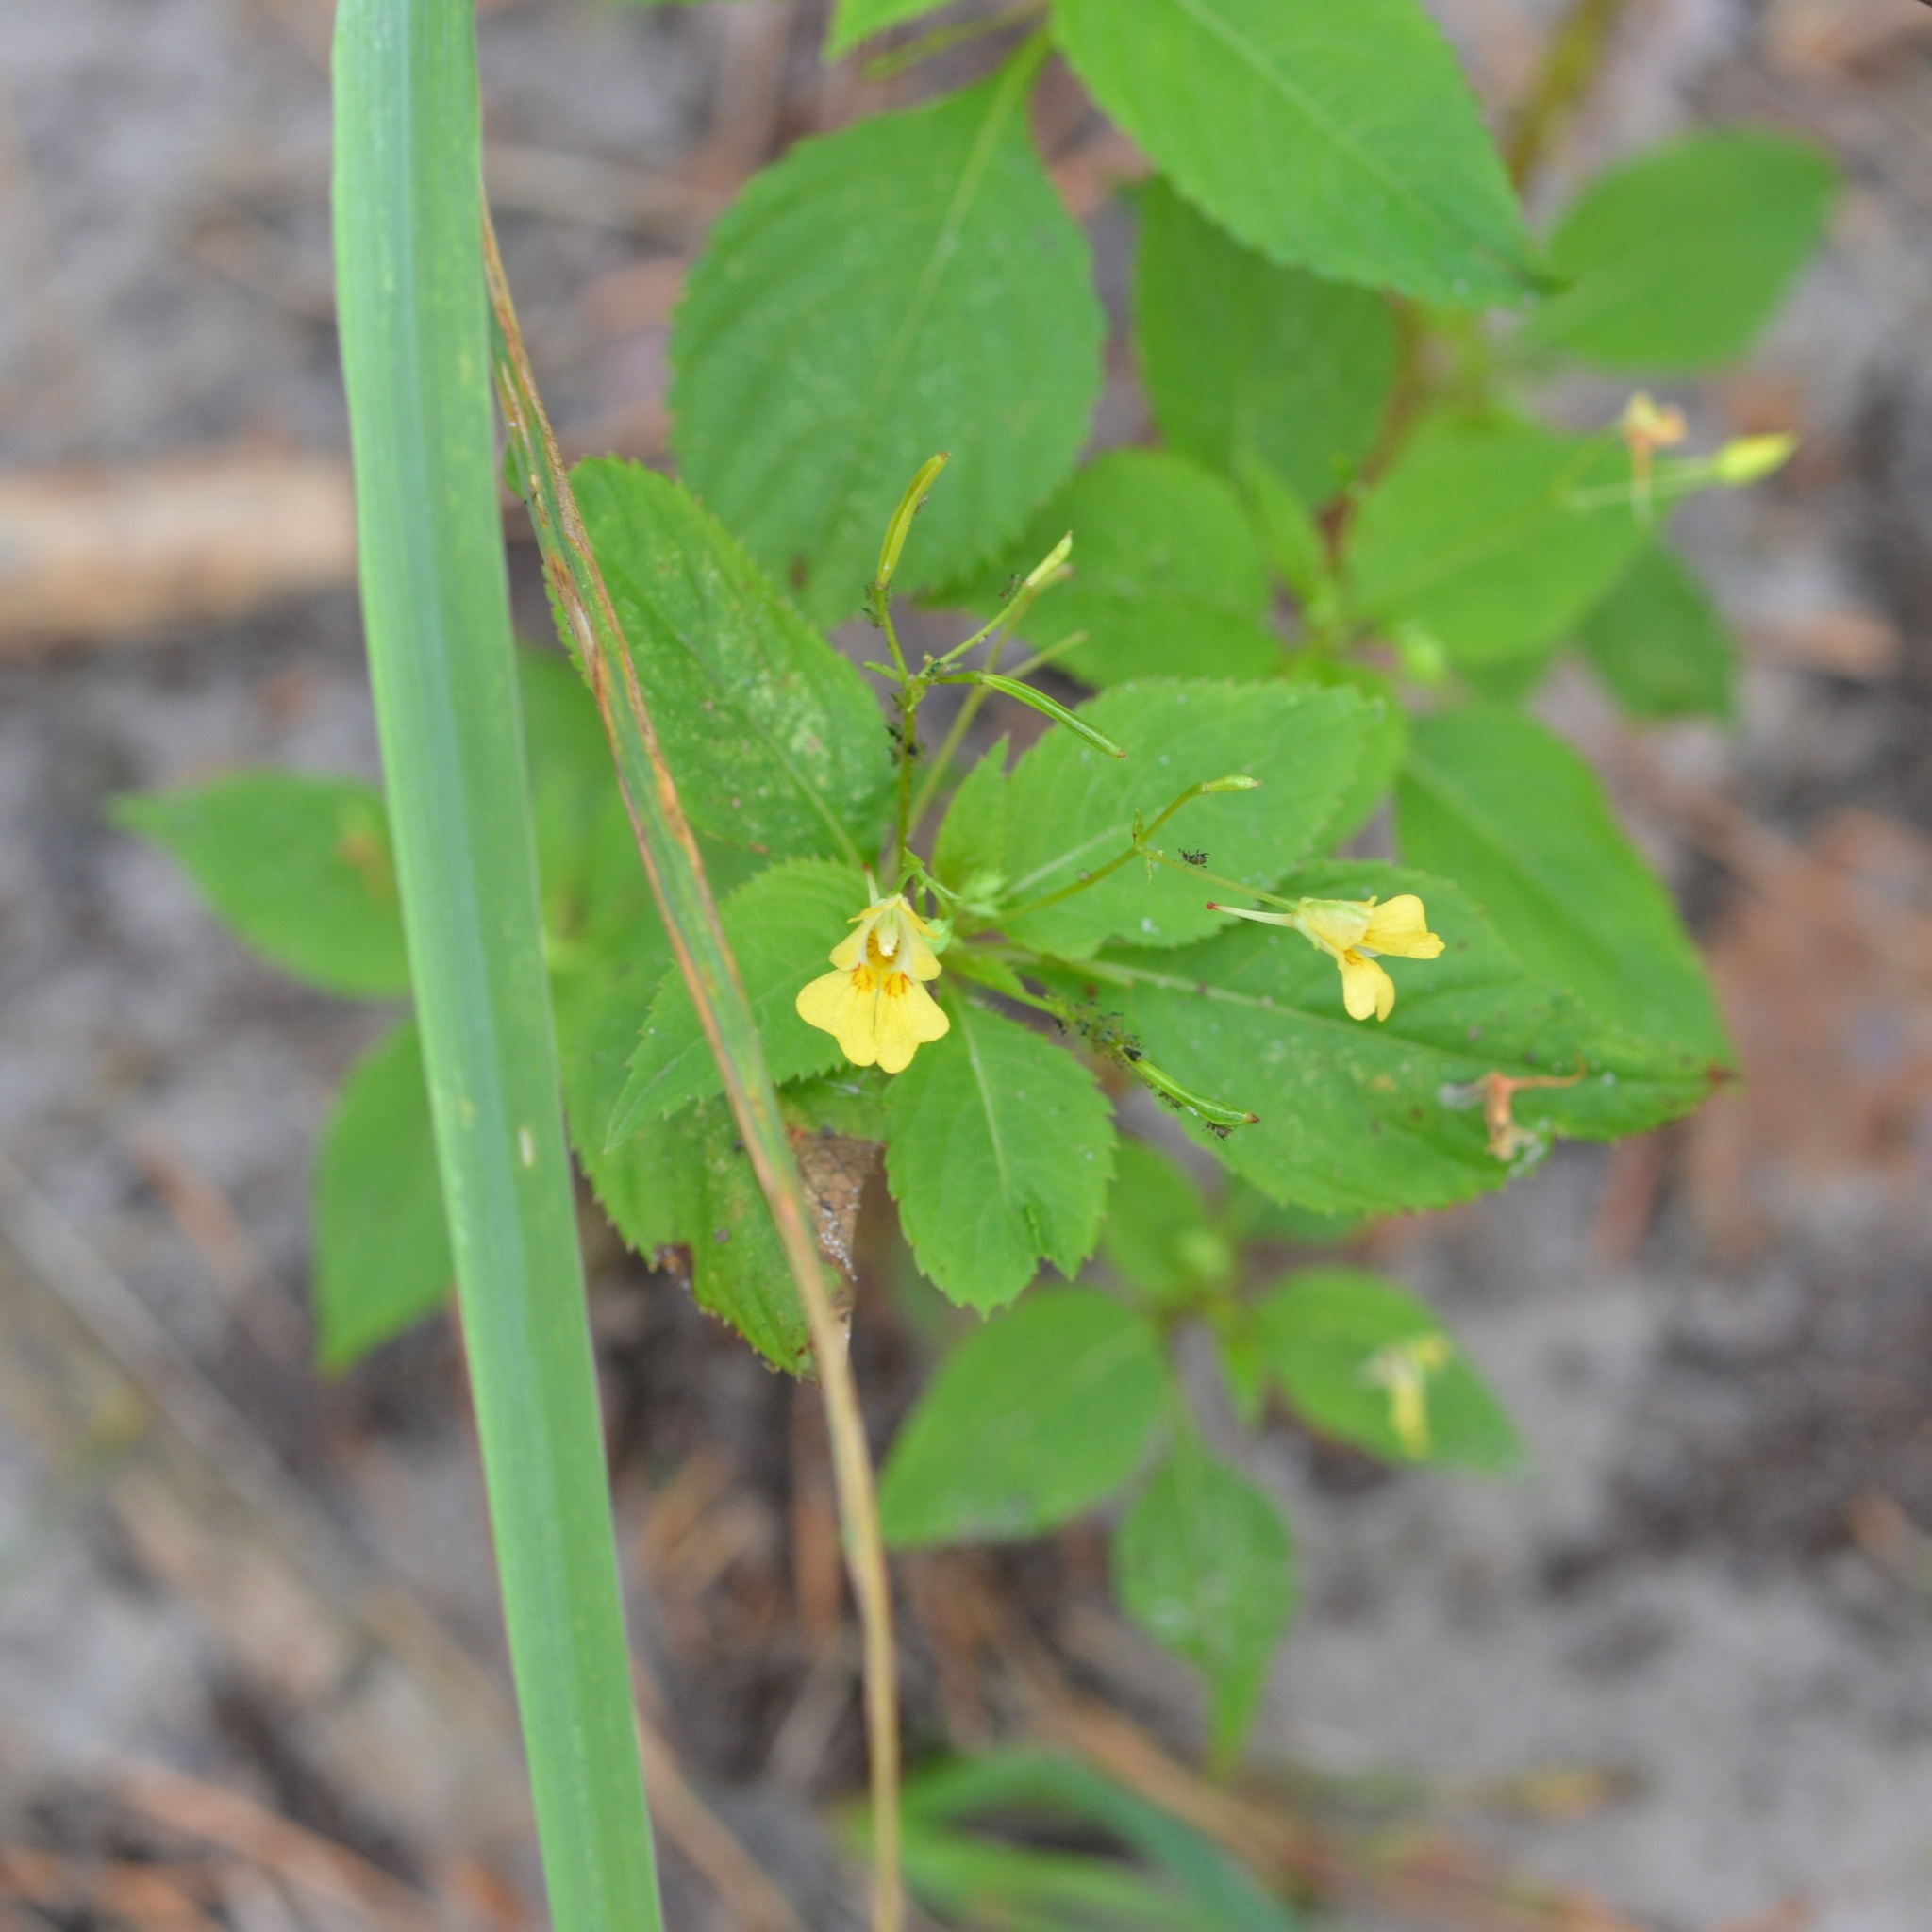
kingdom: Plantae
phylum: Tracheophyta
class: Magnoliopsida
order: Ericales
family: Balsaminaceae
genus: Impatiens
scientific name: Impatiens parviflora
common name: Small balsam
